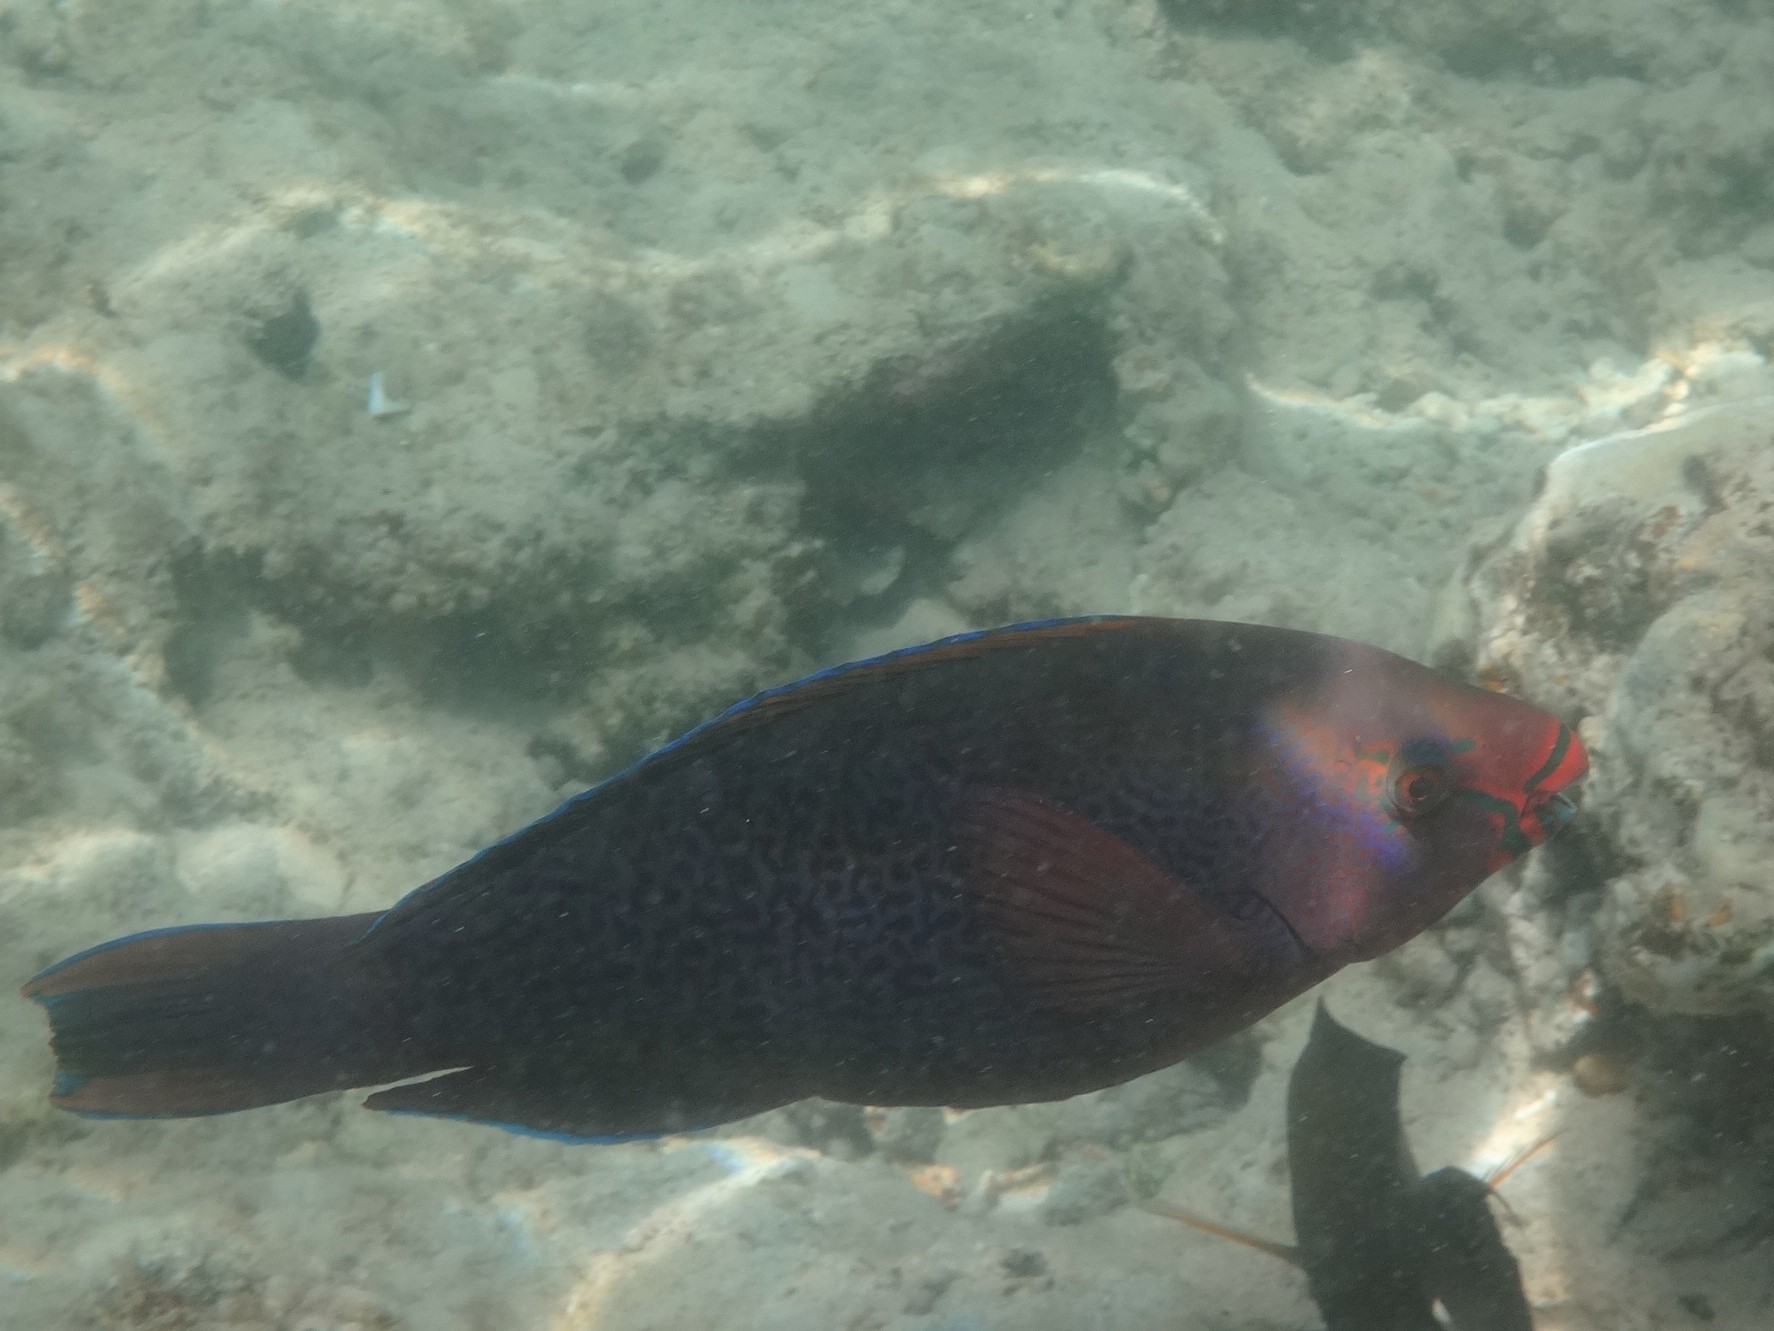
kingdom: Animalia
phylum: Chordata
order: Perciformes
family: Scaridae
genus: Scarus
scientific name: Scarus niger
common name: Dusky parrotfish
